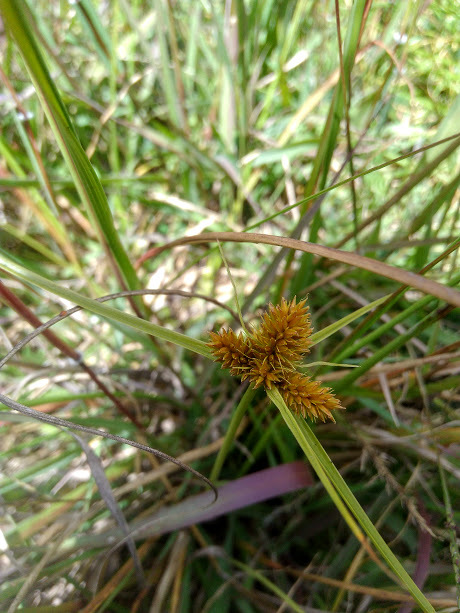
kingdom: Plantae
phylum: Tracheophyta
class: Liliopsida
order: Poales
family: Cyperaceae
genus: Cyperus
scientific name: Cyperus esculentus
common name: Yellow nutsedge
